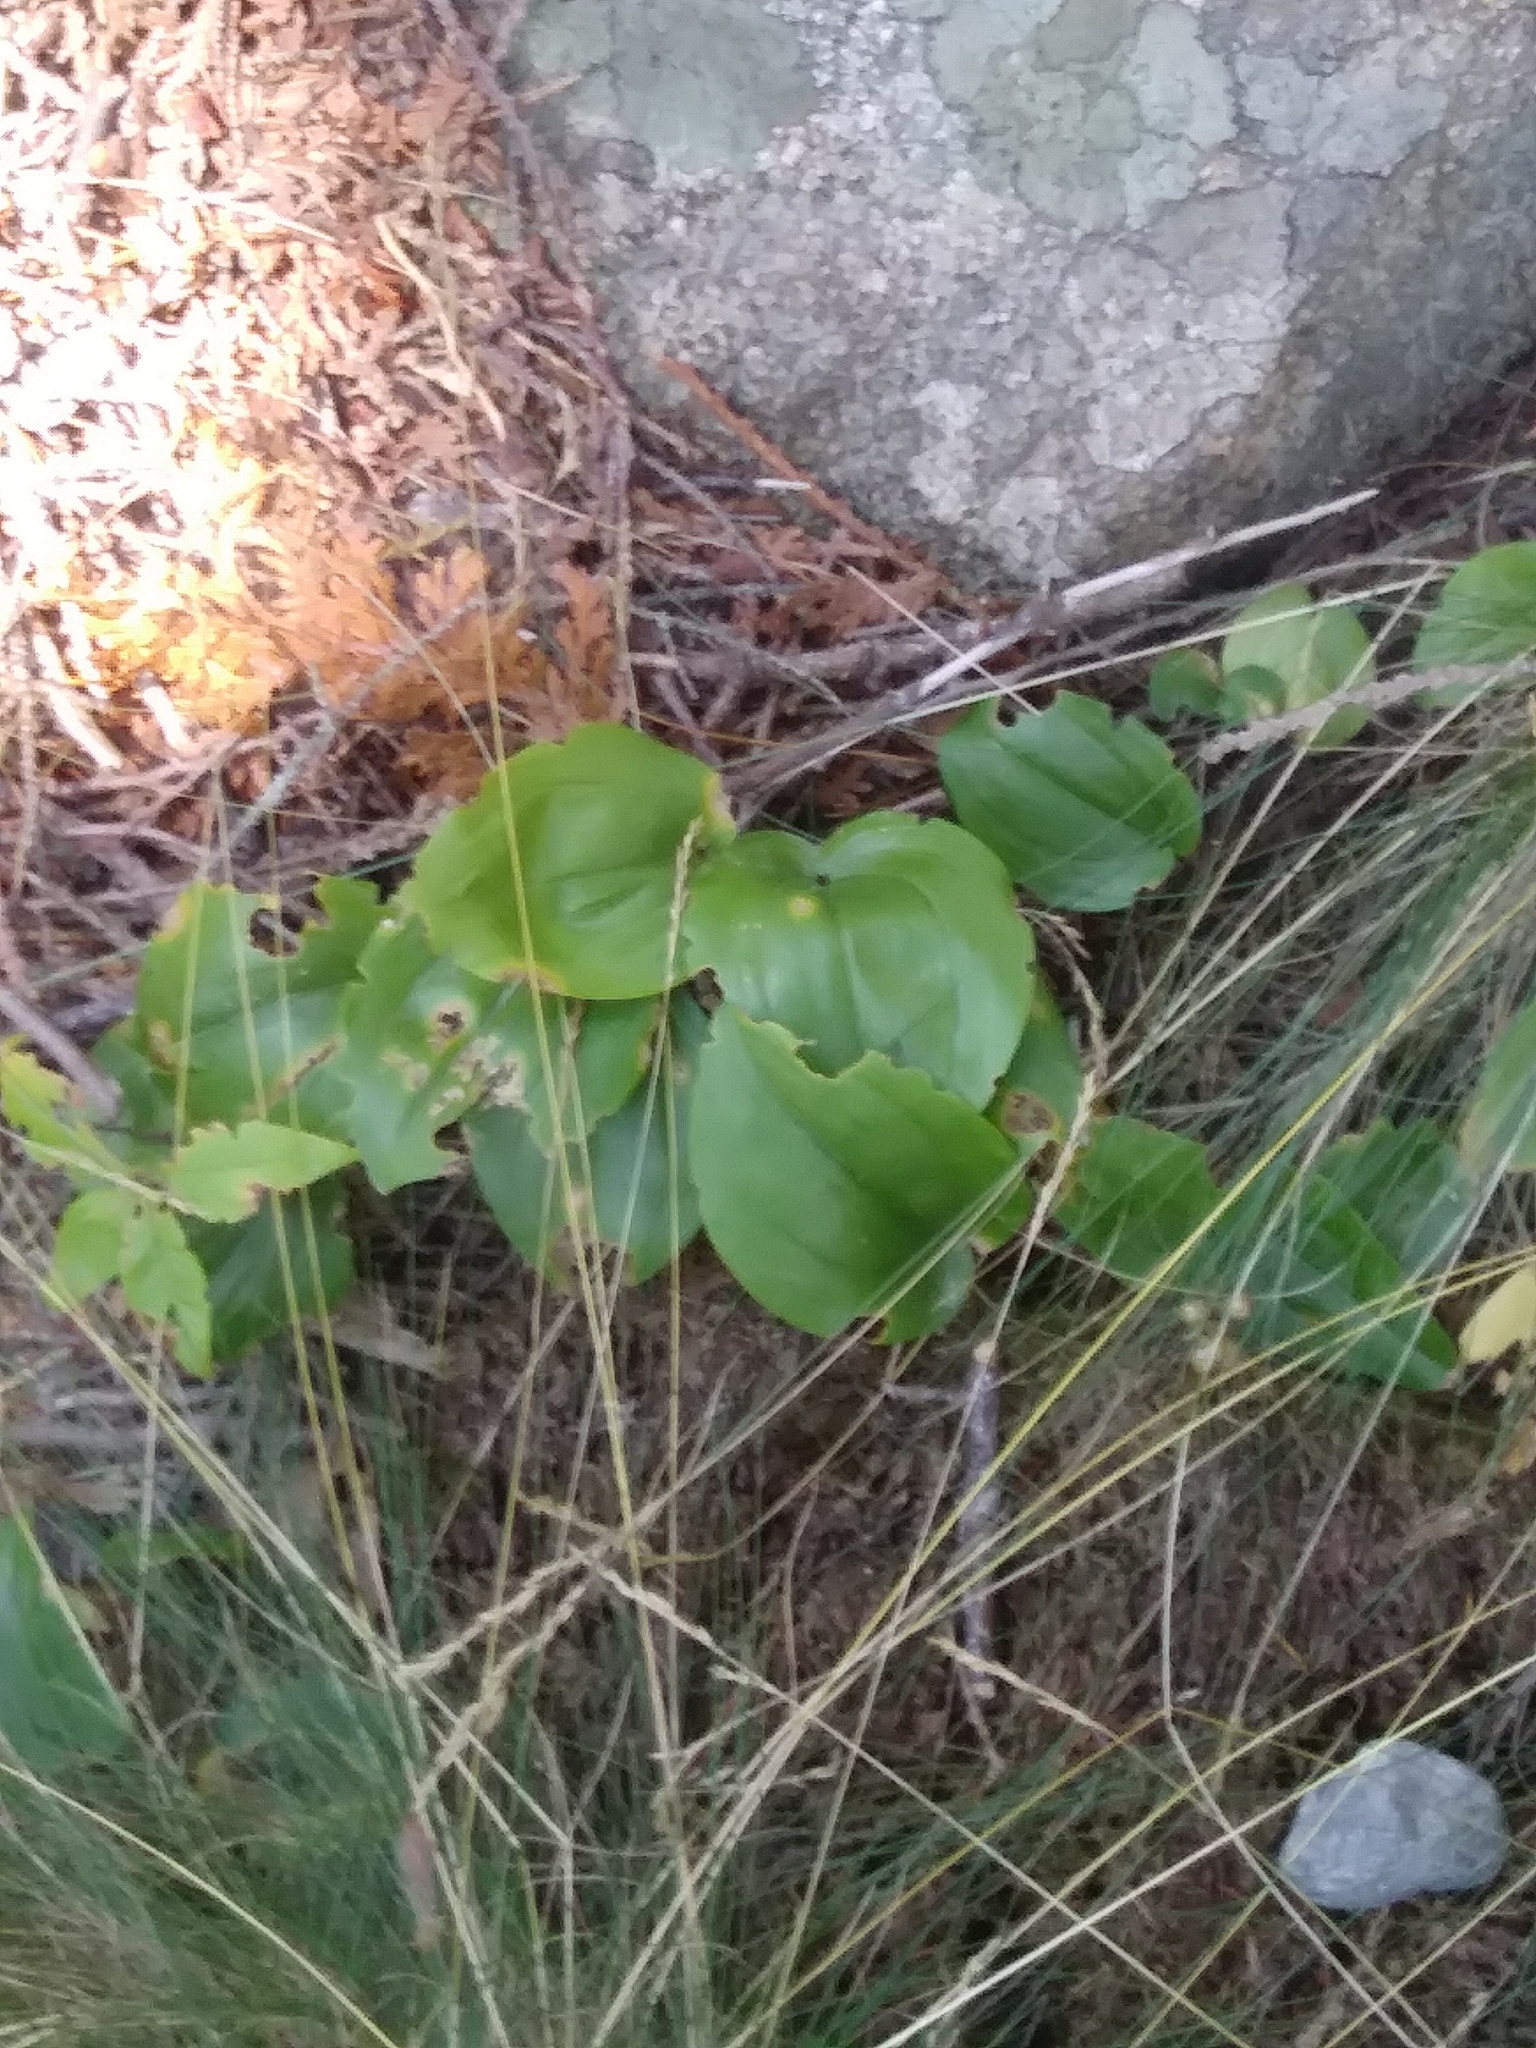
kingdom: Plantae
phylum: Tracheophyta
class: Liliopsida
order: Asparagales
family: Asparagaceae
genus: Maianthemum
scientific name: Maianthemum canadense
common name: False lily-of-the-valley
